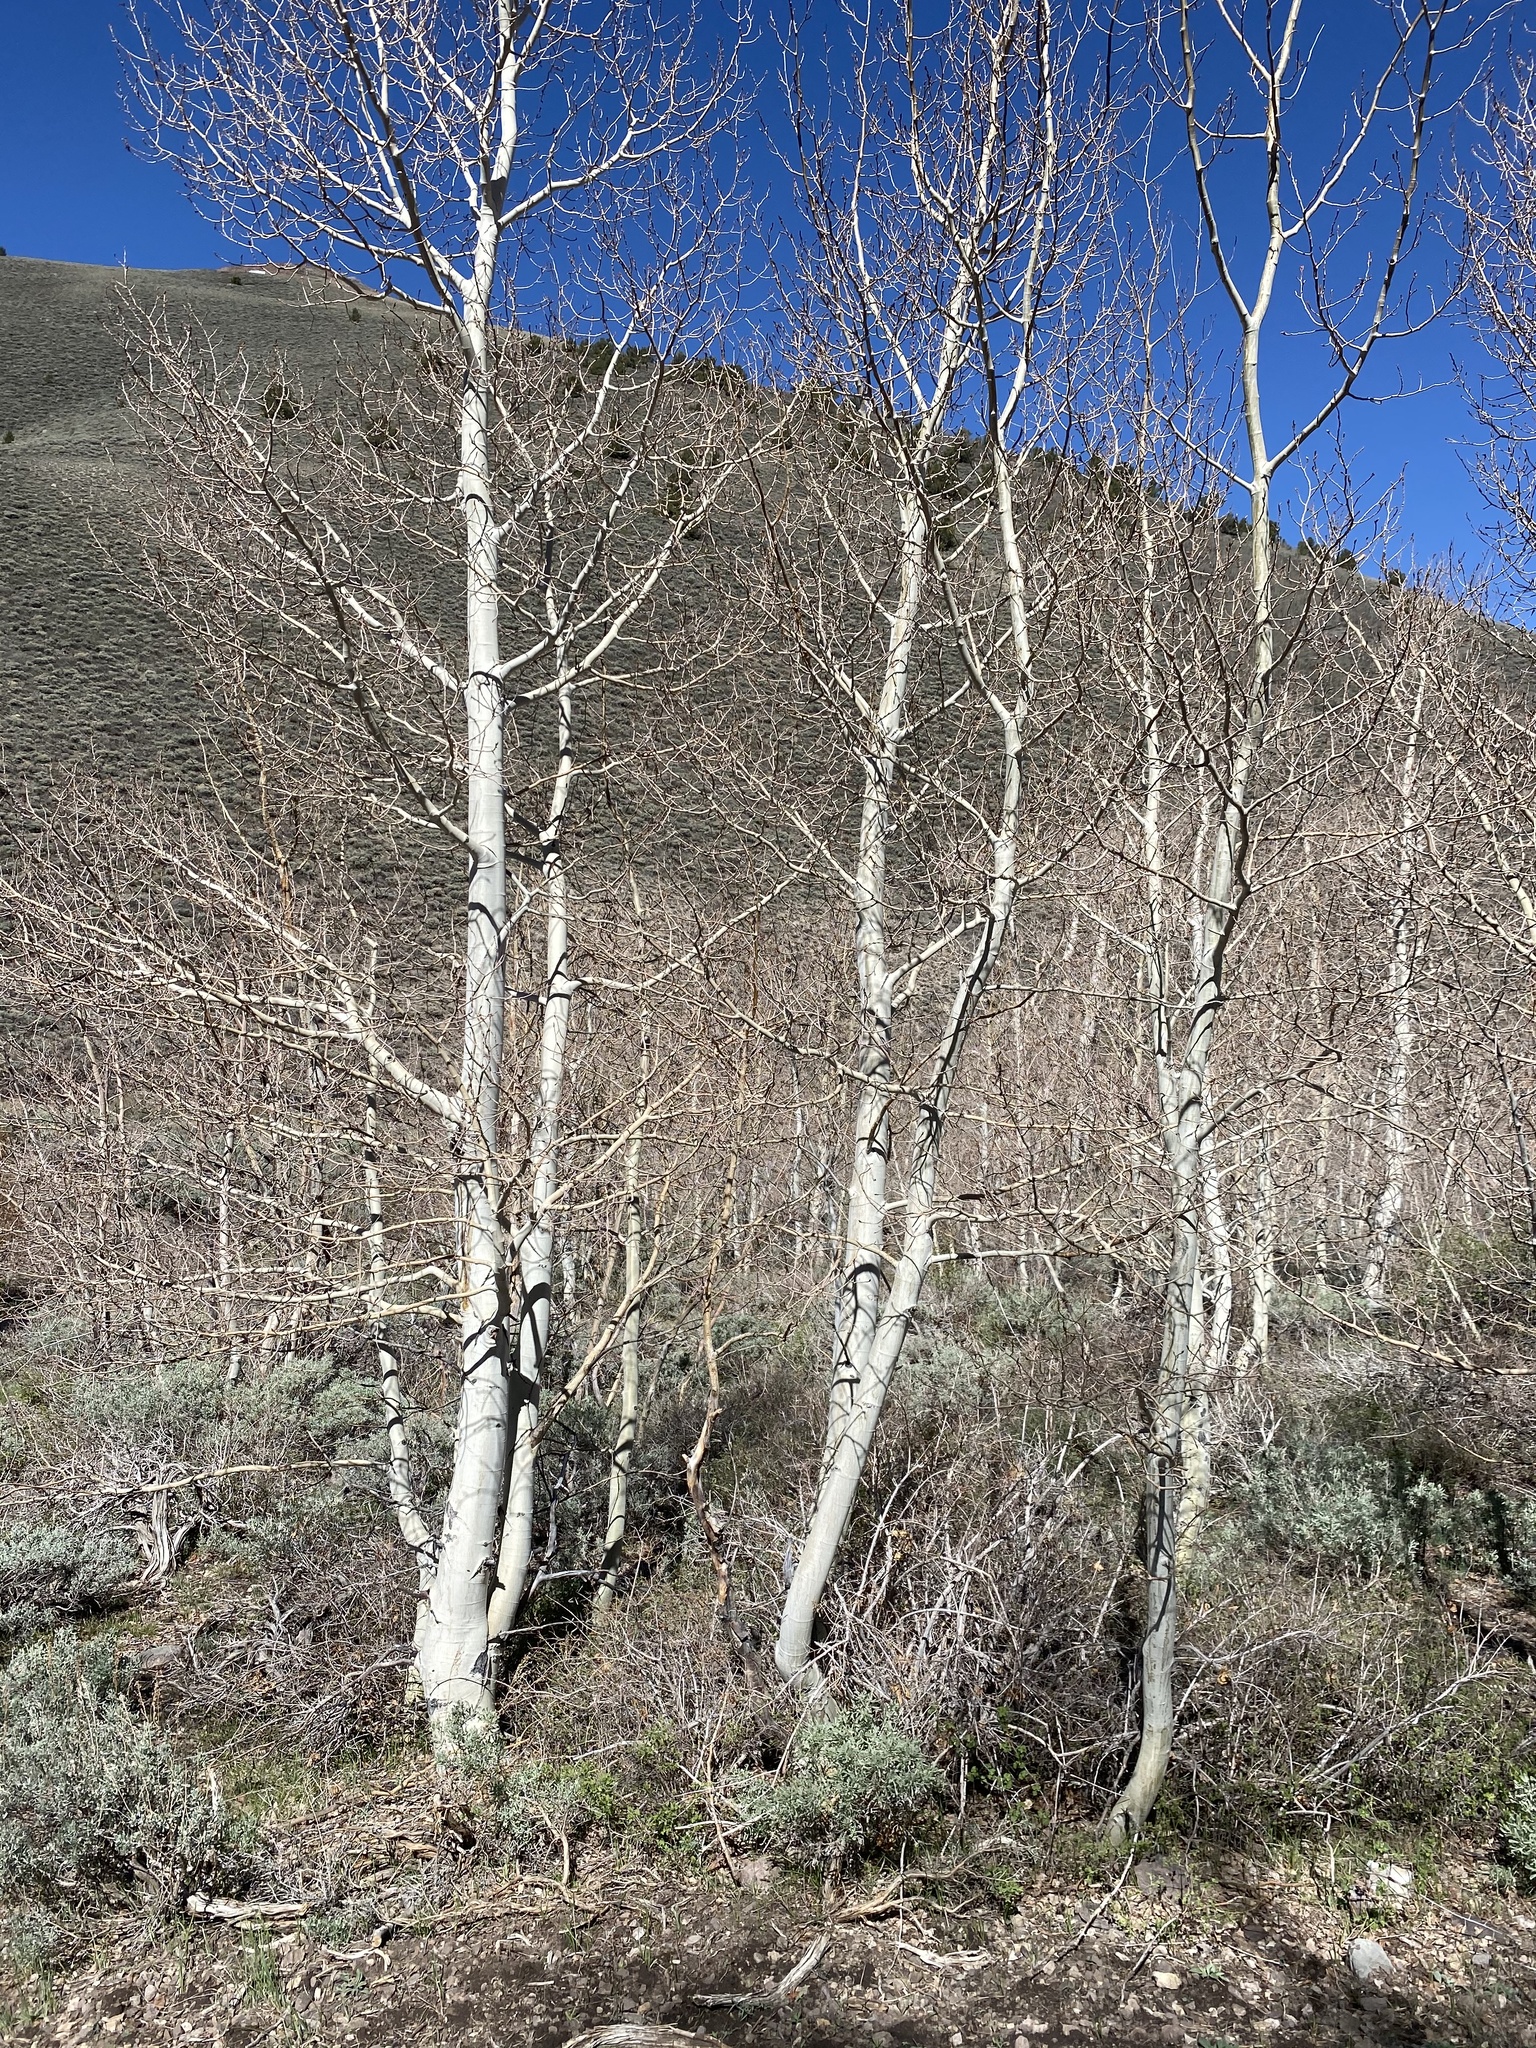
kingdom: Plantae
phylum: Tracheophyta
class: Magnoliopsida
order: Malpighiales
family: Salicaceae
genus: Populus
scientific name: Populus tremuloides
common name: Quaking aspen
